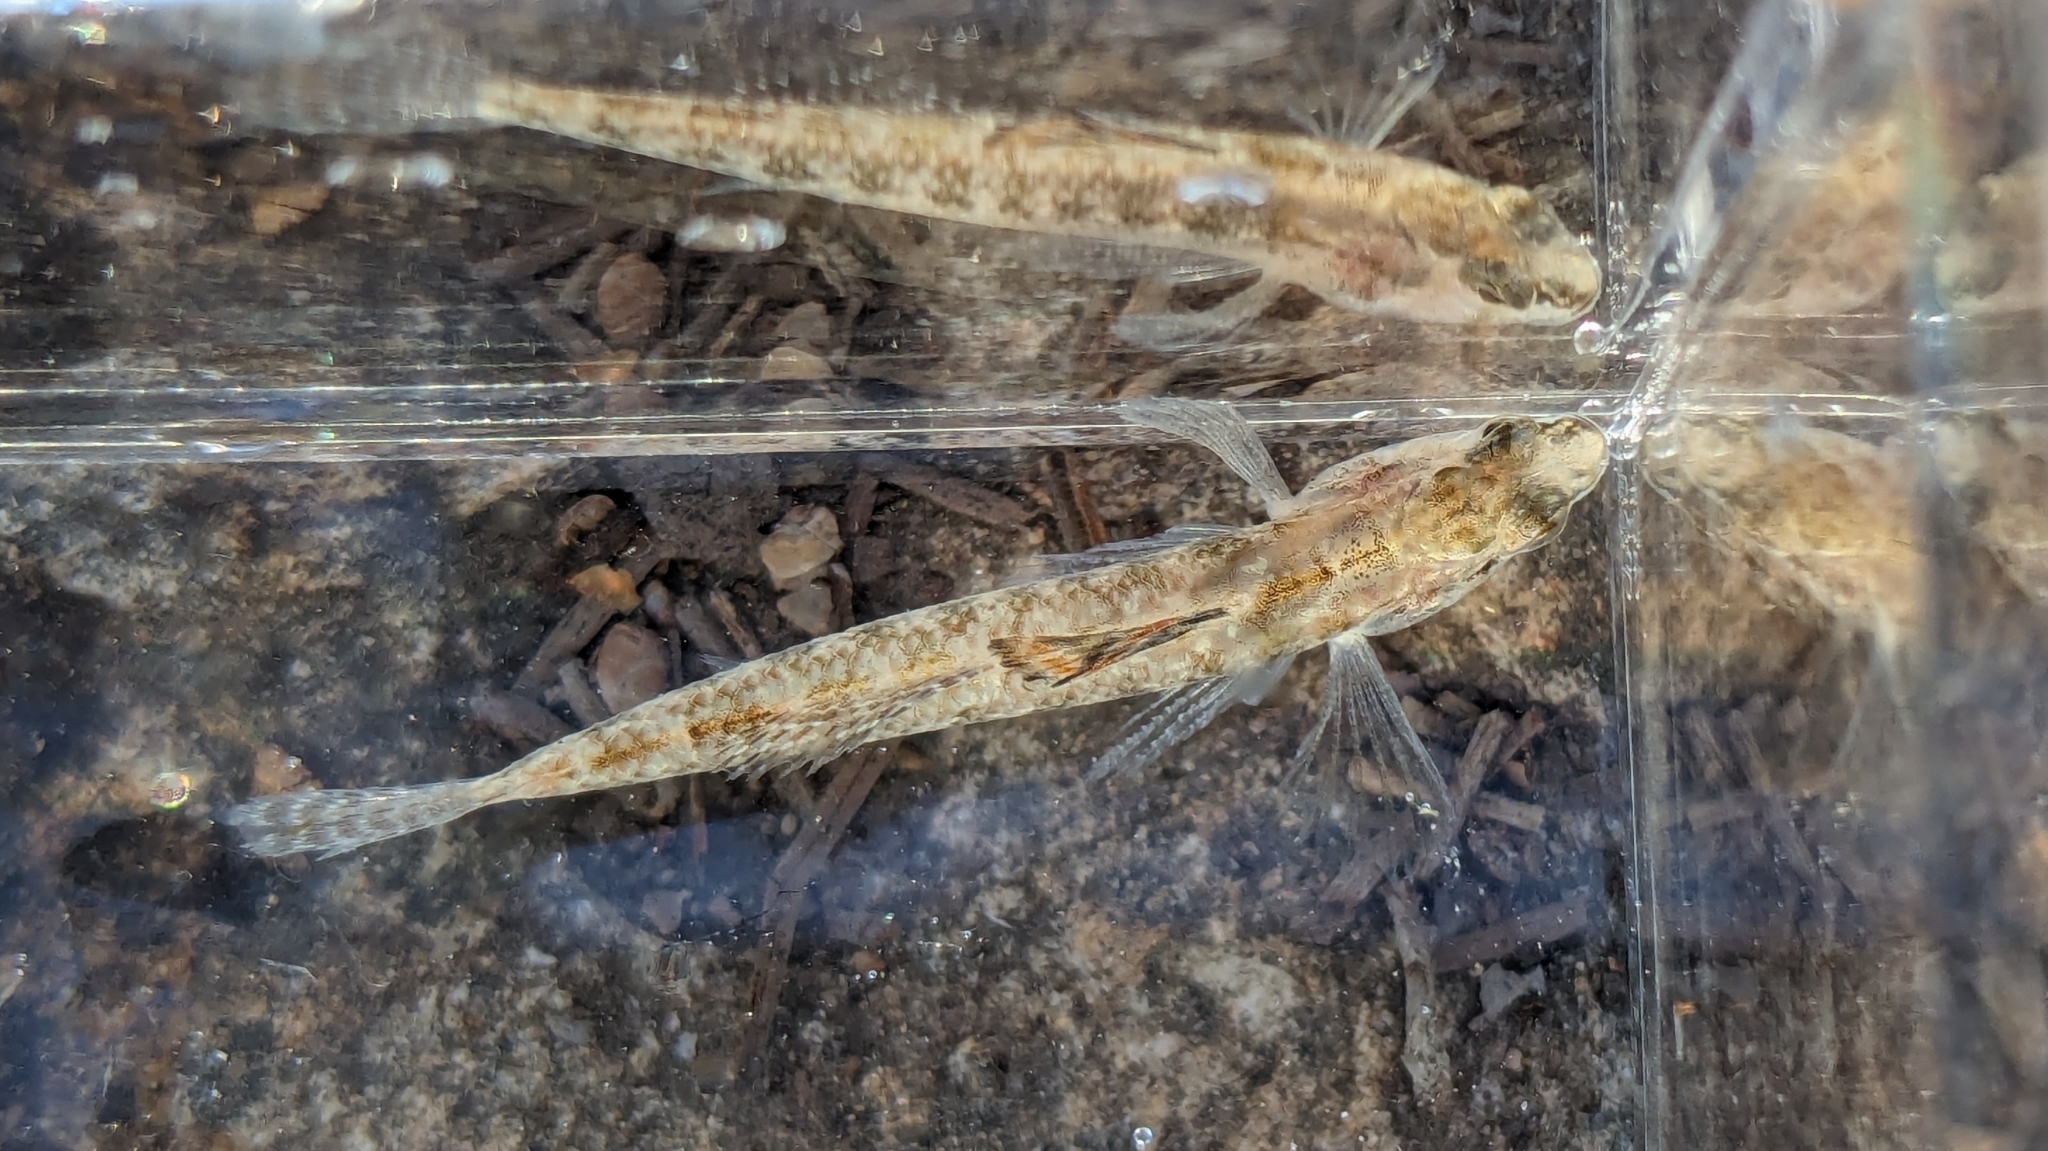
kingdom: Animalia
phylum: Chordata
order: Perciformes
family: Percidae
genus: Etheostoma
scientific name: Etheostoma fonticola
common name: Fountain darter
